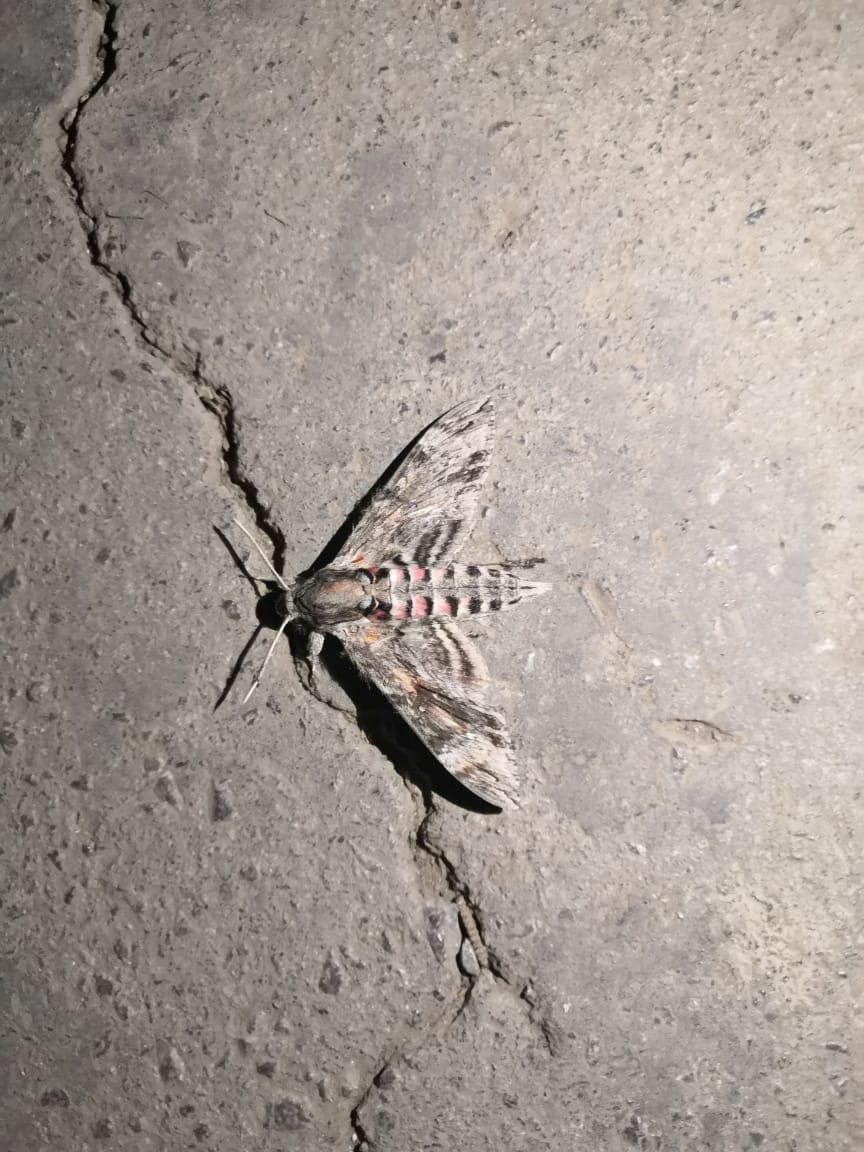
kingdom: Animalia
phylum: Arthropoda
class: Insecta
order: Lepidoptera
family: Sphingidae
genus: Agrius
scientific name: Agrius convolvuli
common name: Convolvulus hawkmoth
